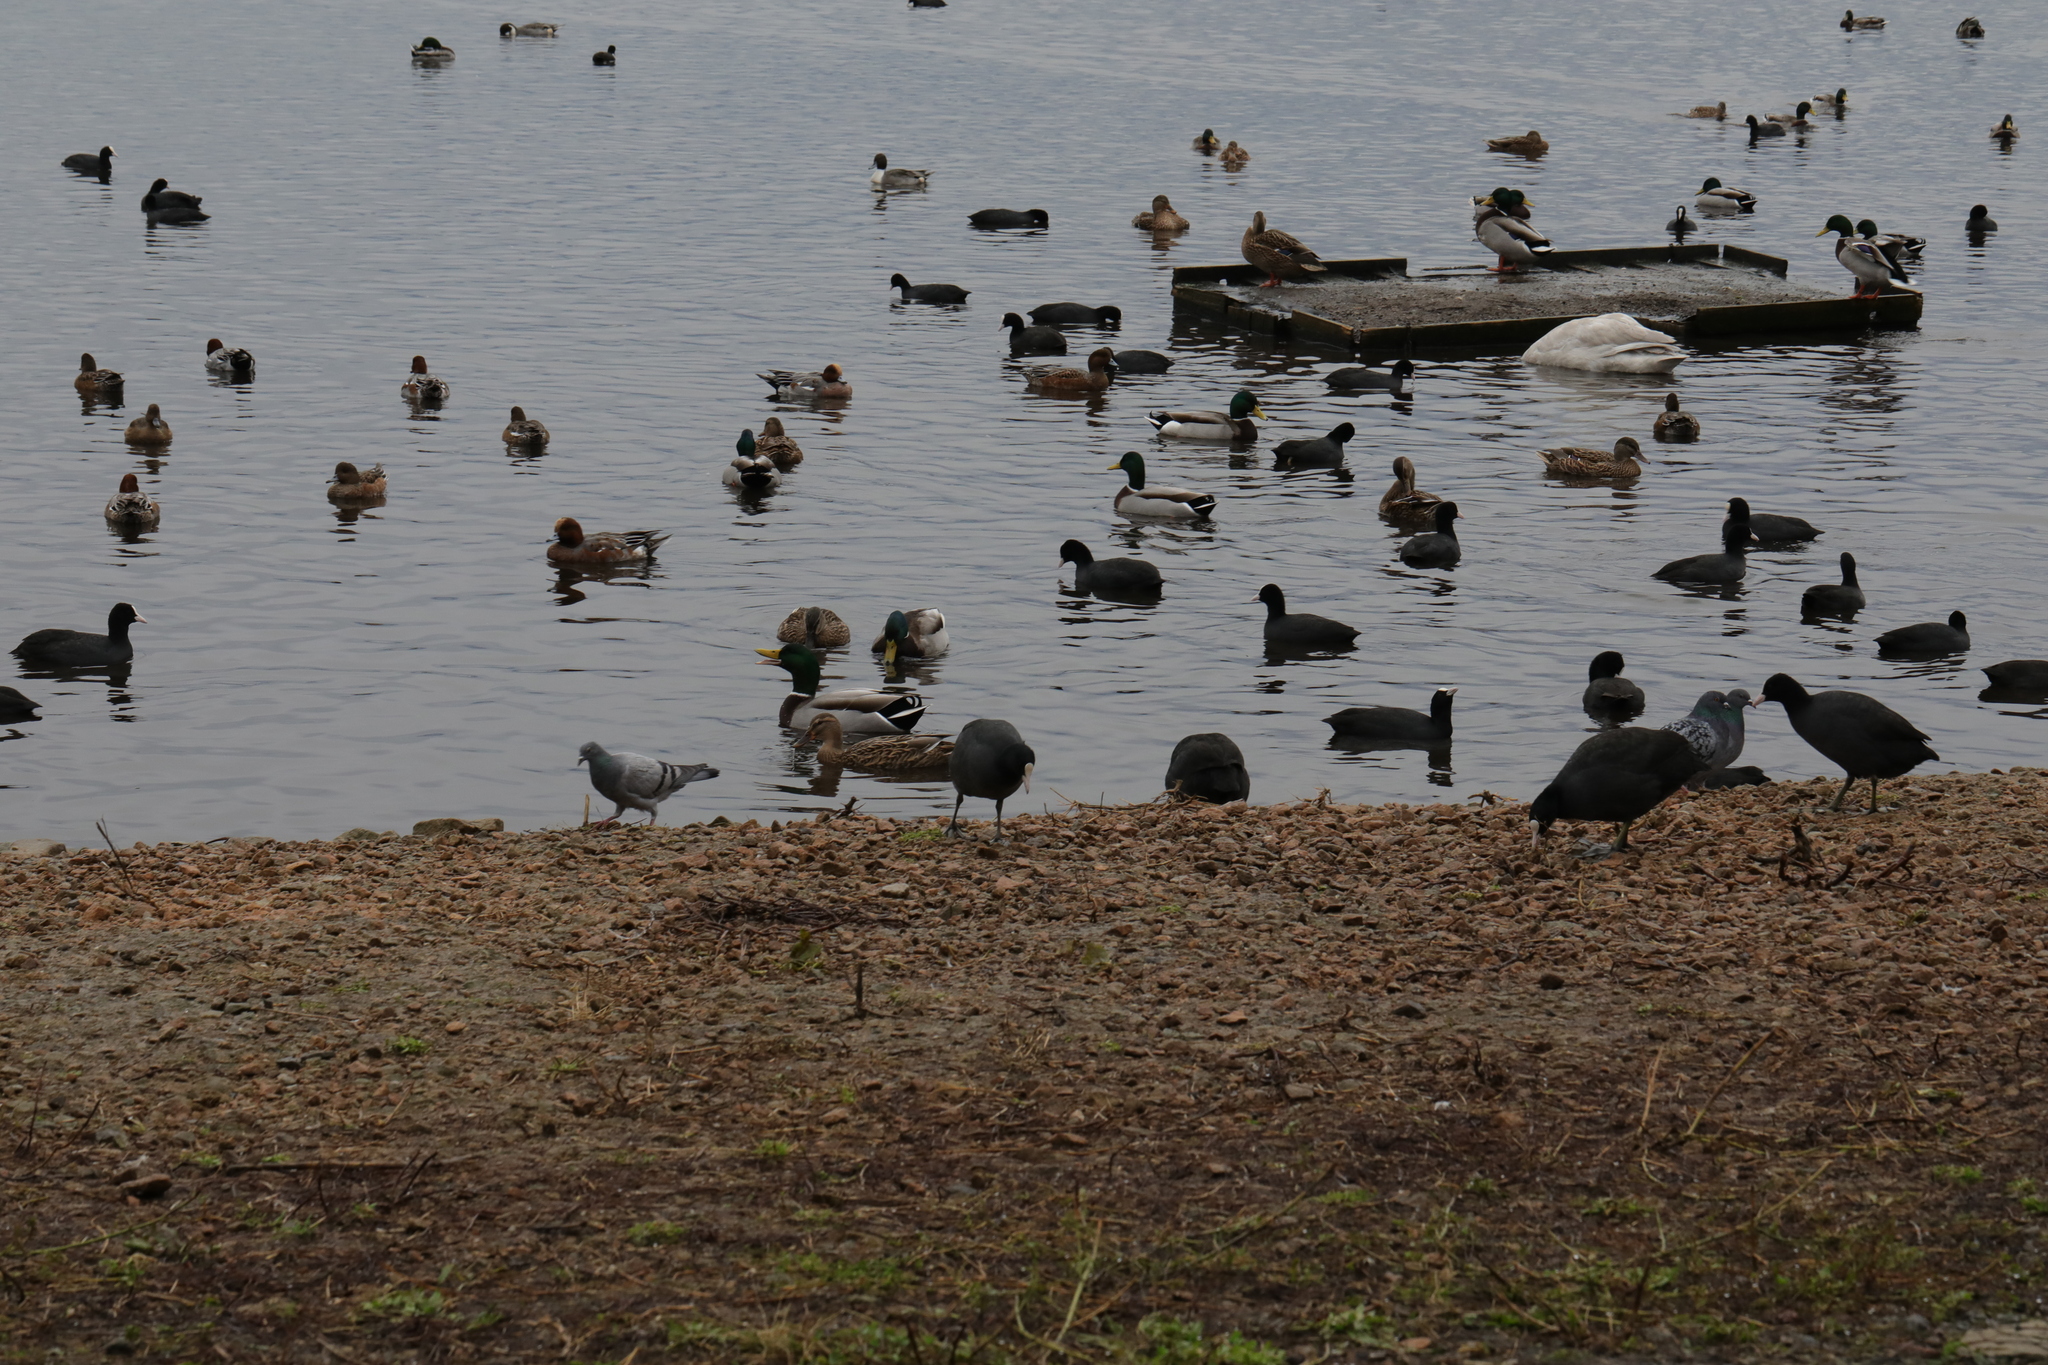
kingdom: Animalia
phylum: Chordata
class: Aves
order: Gruiformes
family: Rallidae
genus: Fulica
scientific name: Fulica atra
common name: Eurasian coot
